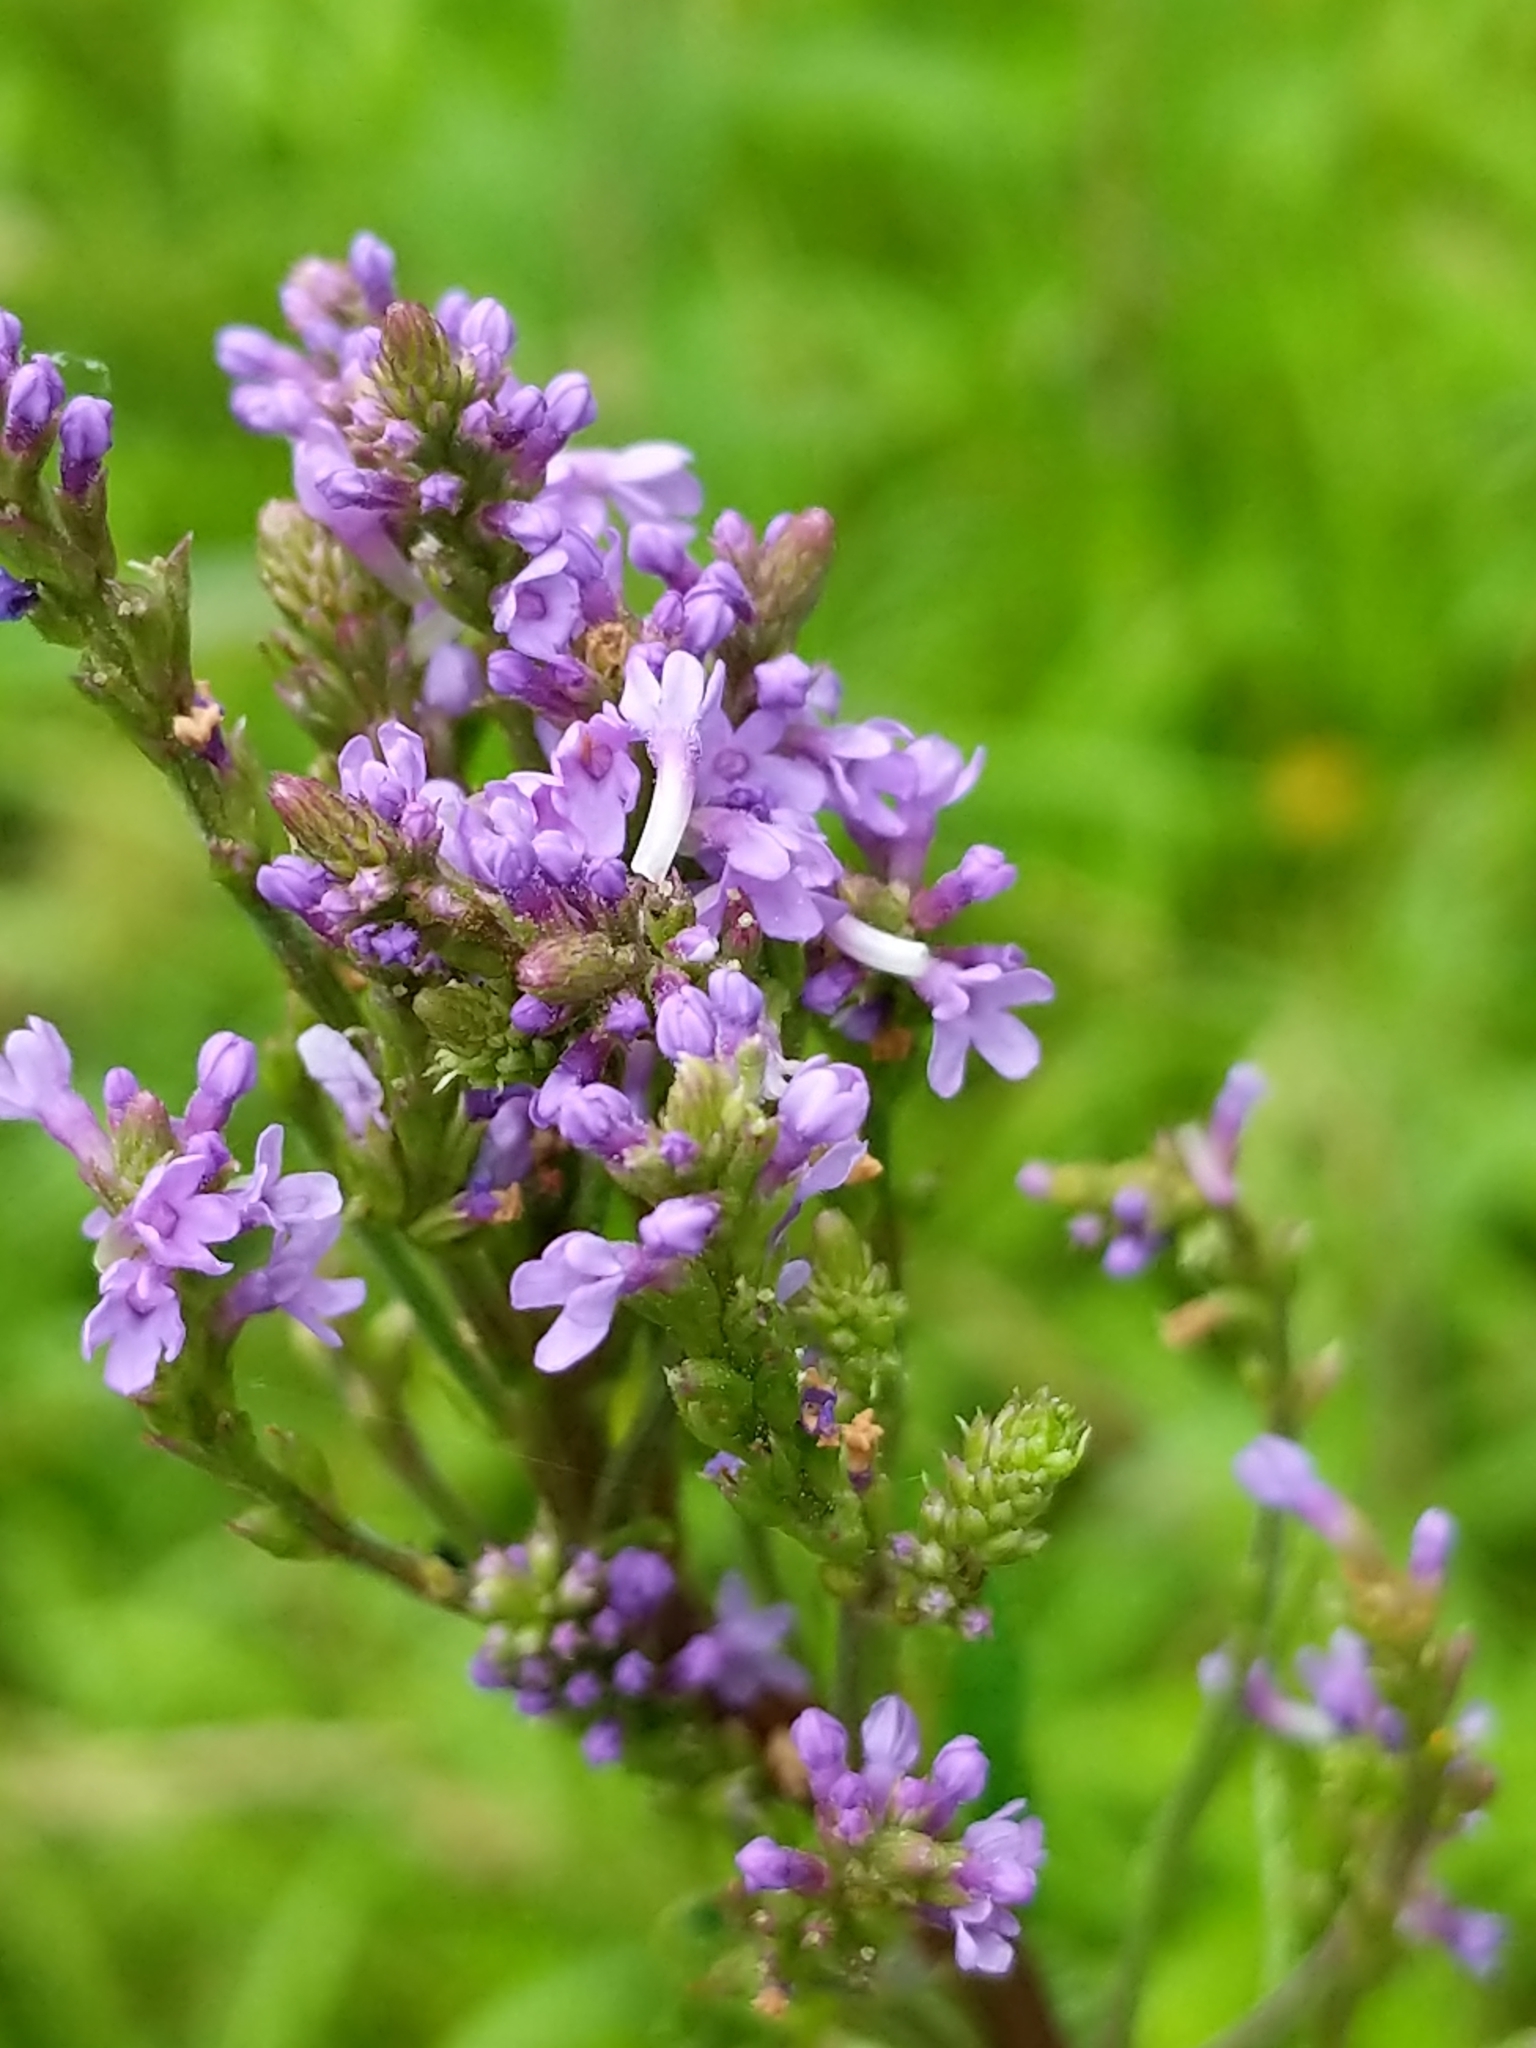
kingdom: Plantae
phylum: Tracheophyta
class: Magnoliopsida
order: Lamiales
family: Verbenaceae
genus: Verbena
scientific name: Verbena hastata
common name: American blue vervain
